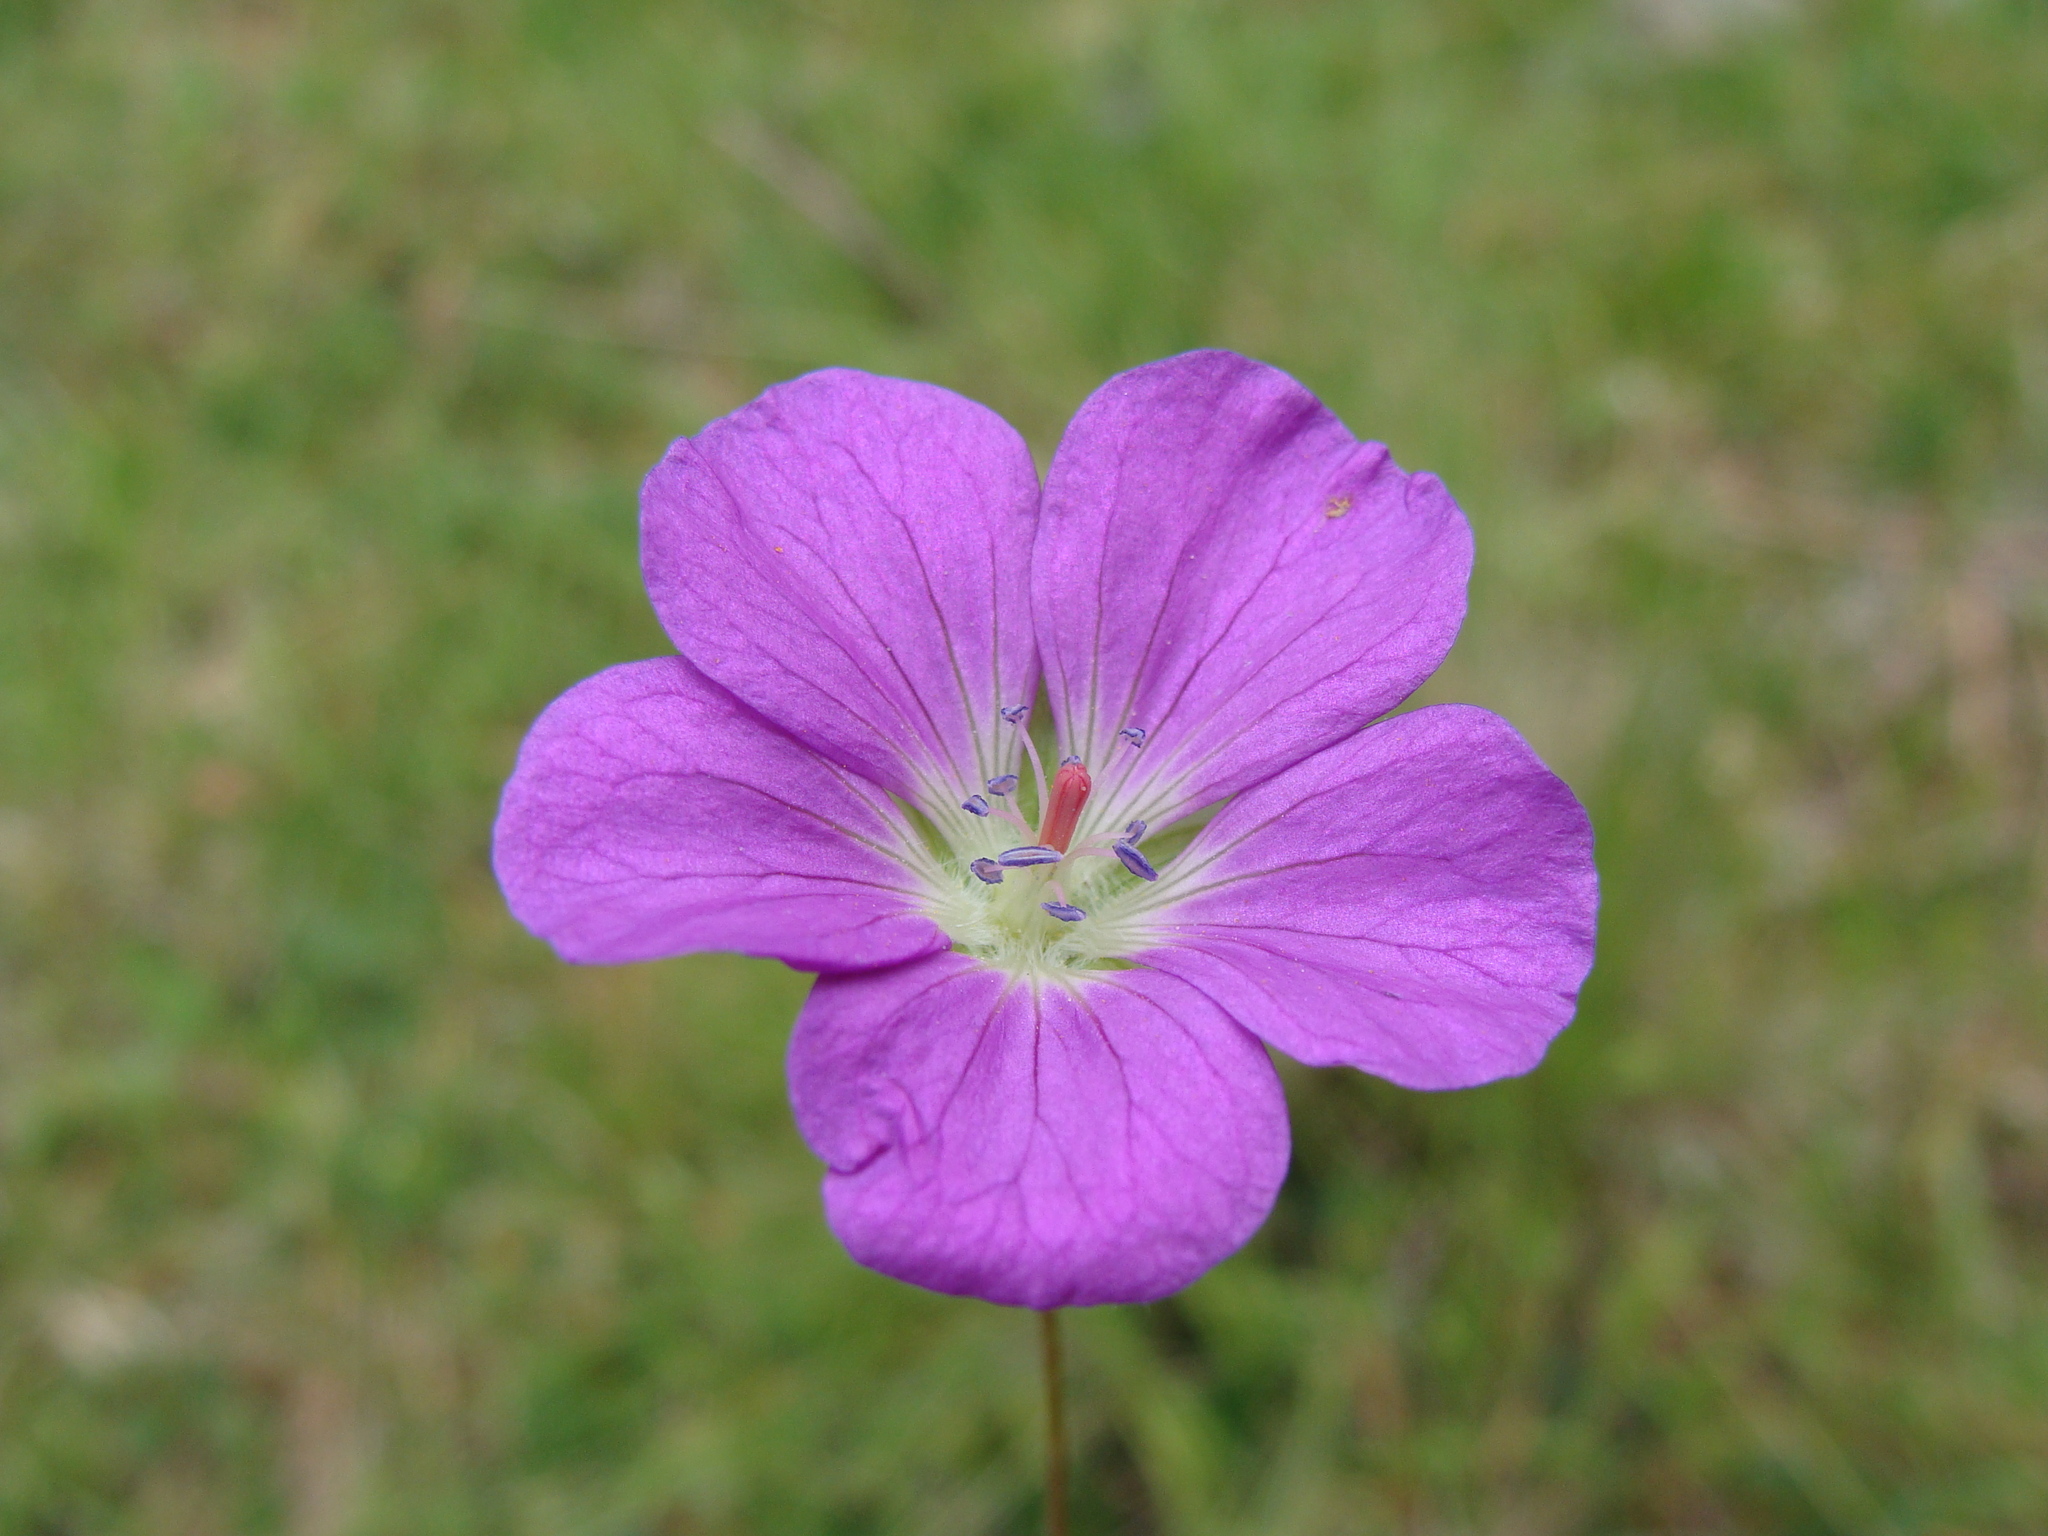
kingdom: Plantae
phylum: Tracheophyta
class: Magnoliopsida
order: Geraniales
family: Geraniaceae
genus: Geranium
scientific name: Geranium potentillifolium
